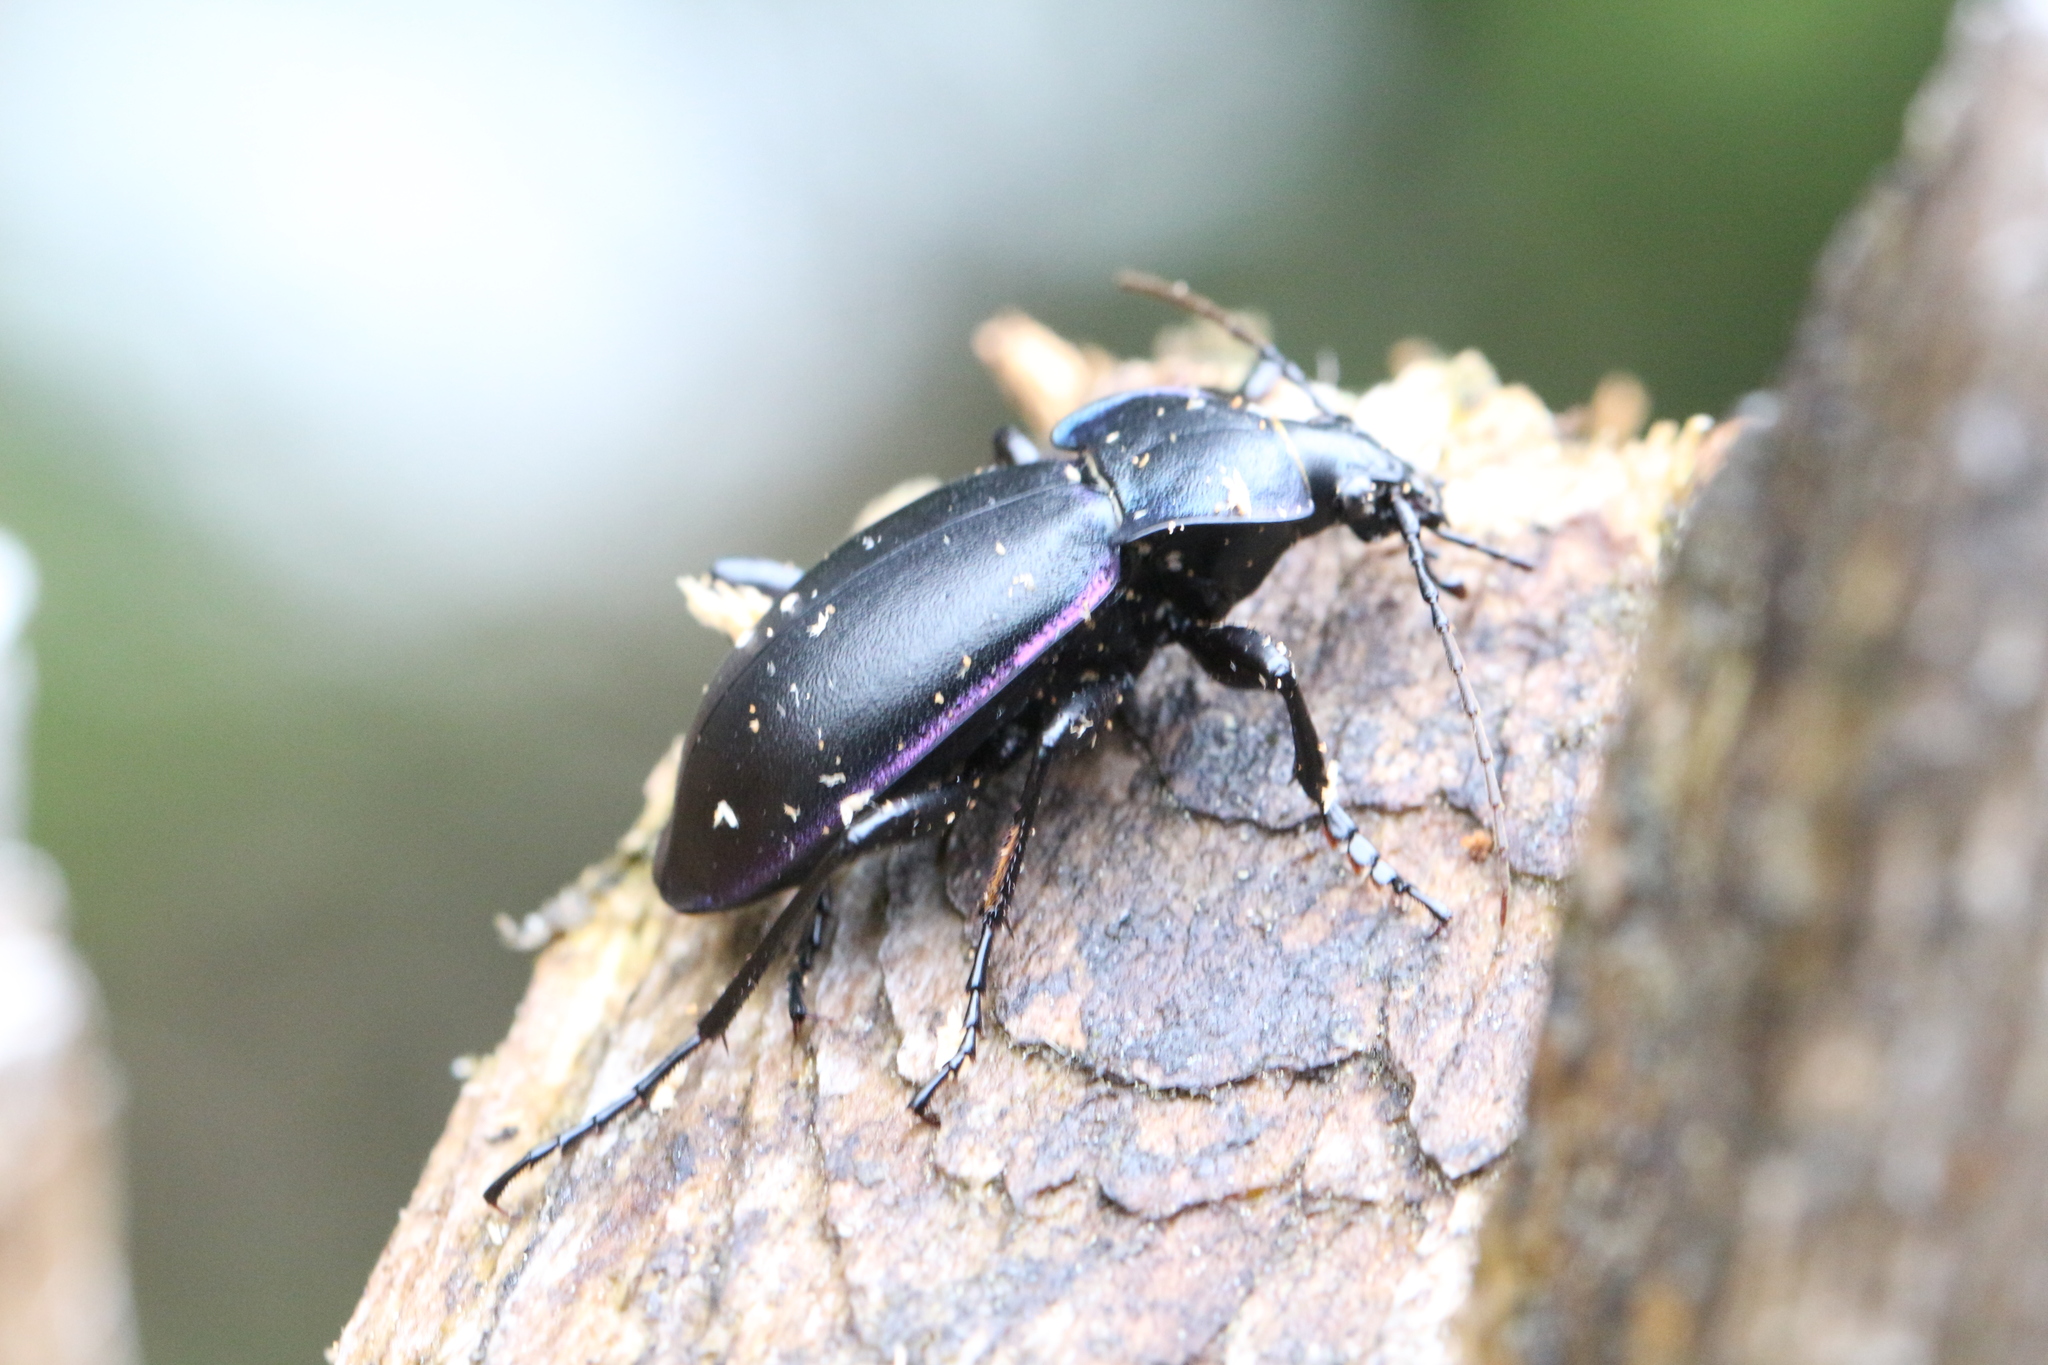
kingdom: Animalia
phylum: Arthropoda
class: Insecta
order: Coleoptera
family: Carabidae
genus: Carabus
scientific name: Carabus violaceus
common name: Violet ground beetle
